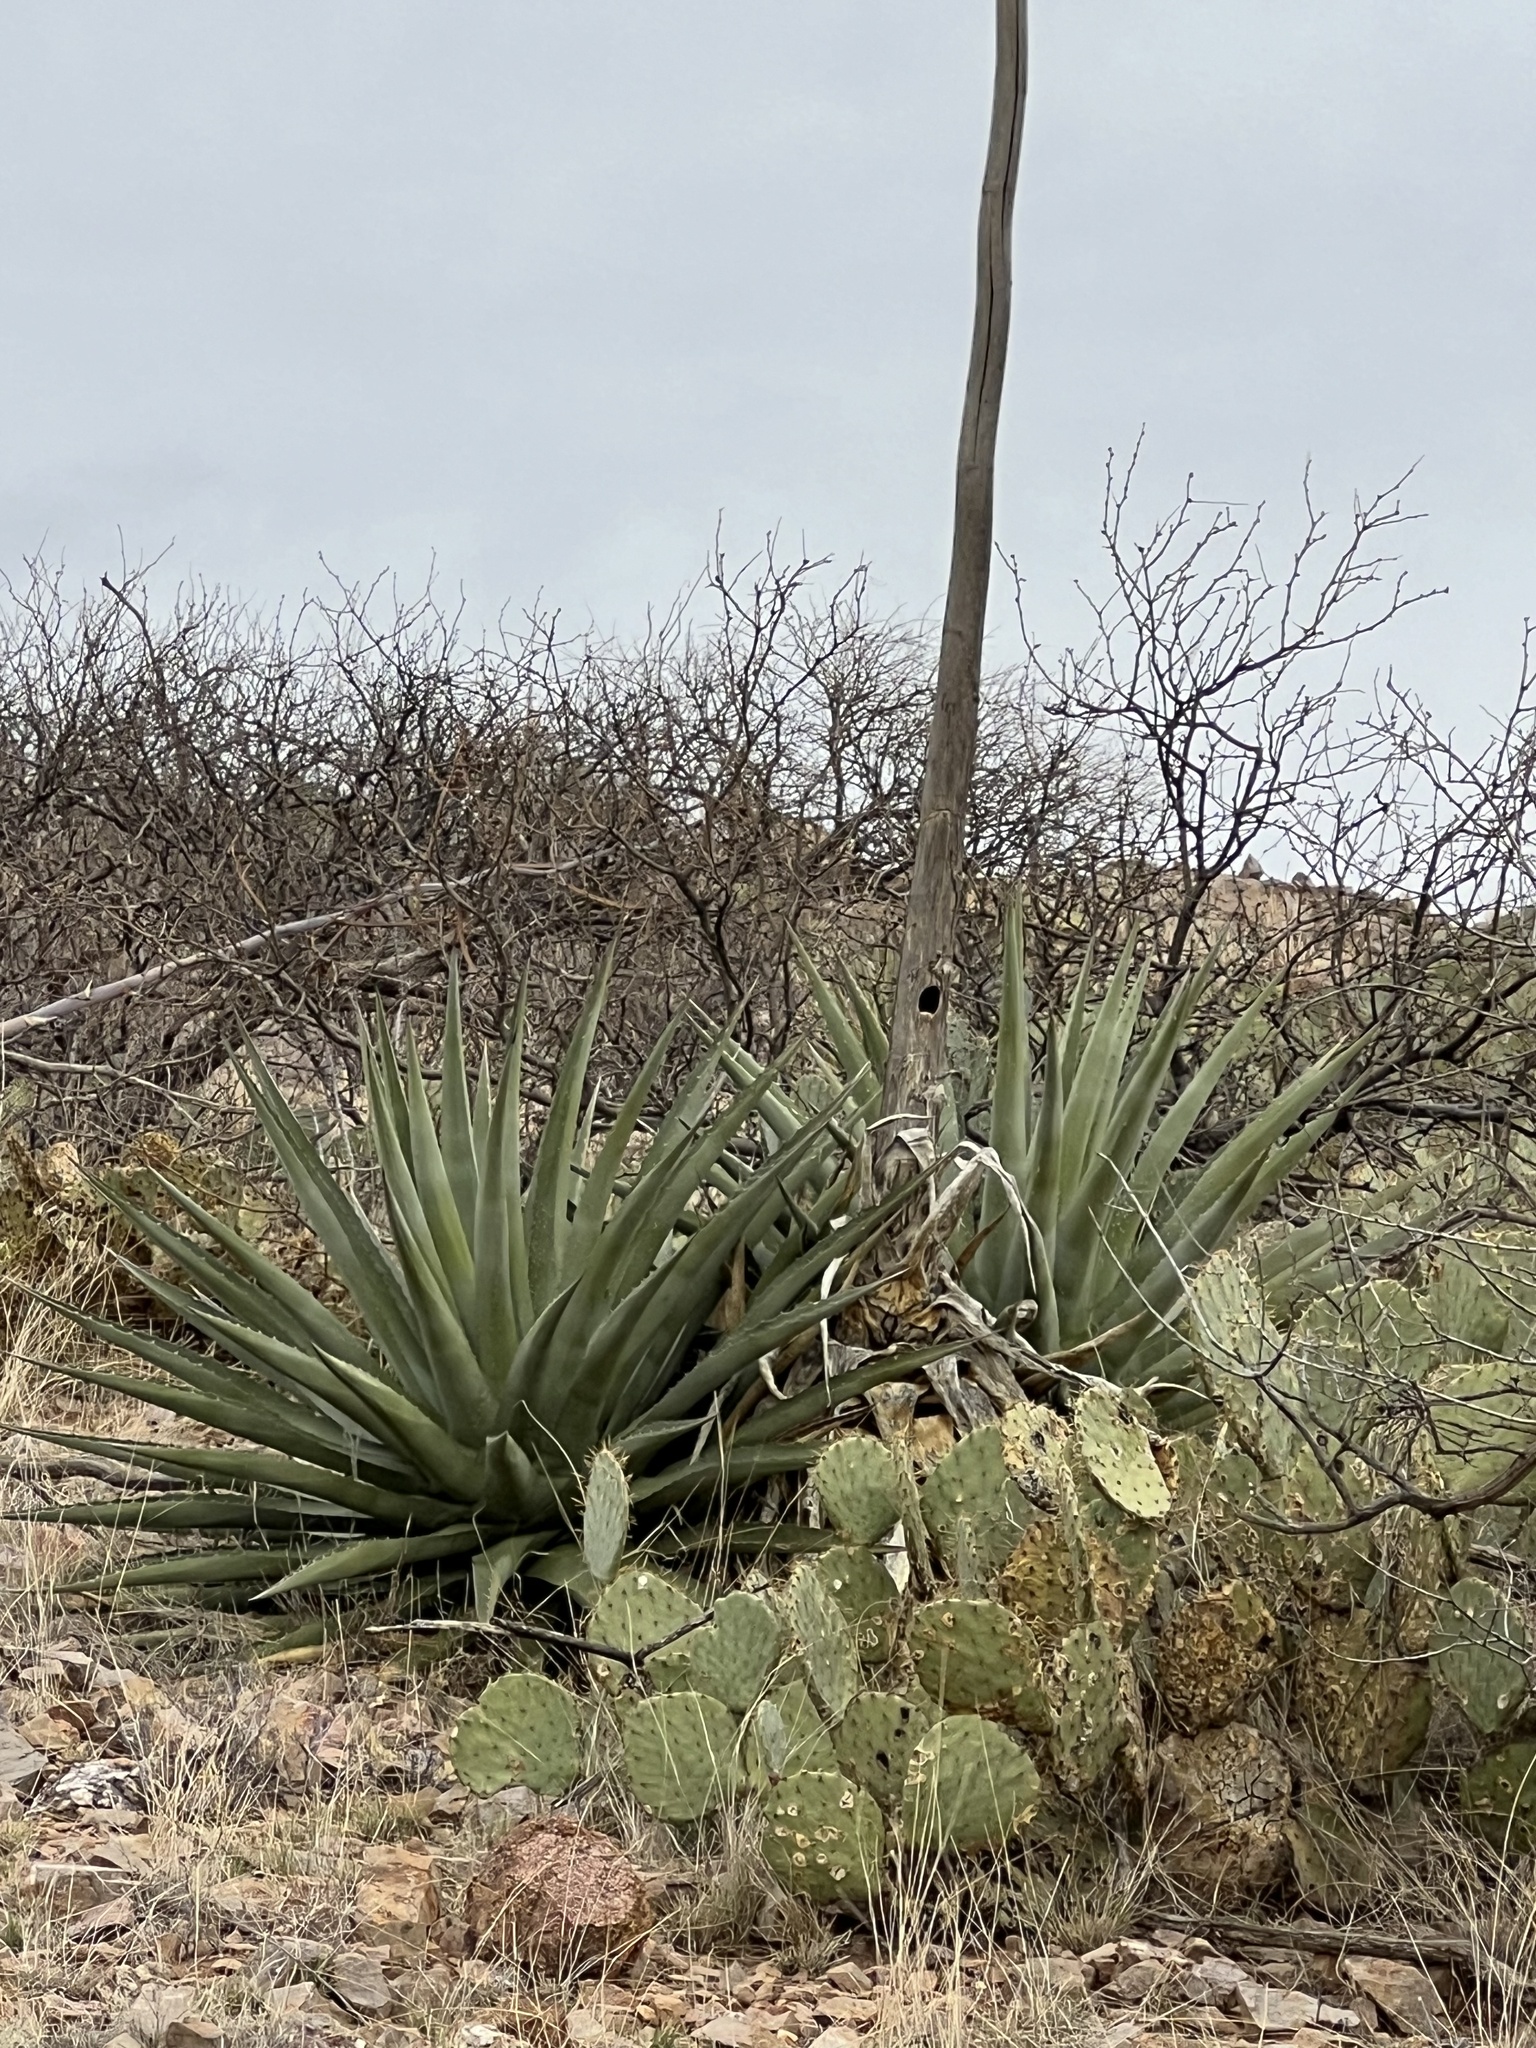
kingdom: Plantae
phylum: Tracheophyta
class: Liliopsida
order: Asparagales
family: Asparagaceae
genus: Agave
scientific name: Agave palmeri
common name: Palmer agave
